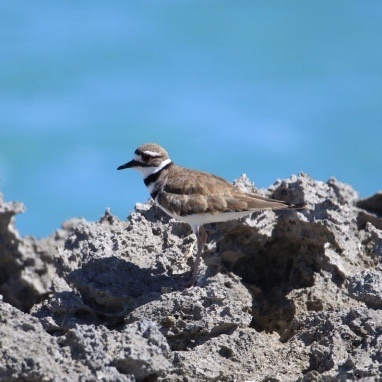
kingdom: Animalia
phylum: Chordata
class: Aves
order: Charadriiformes
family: Charadriidae
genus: Charadrius
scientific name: Charadrius vociferus
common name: Killdeer
